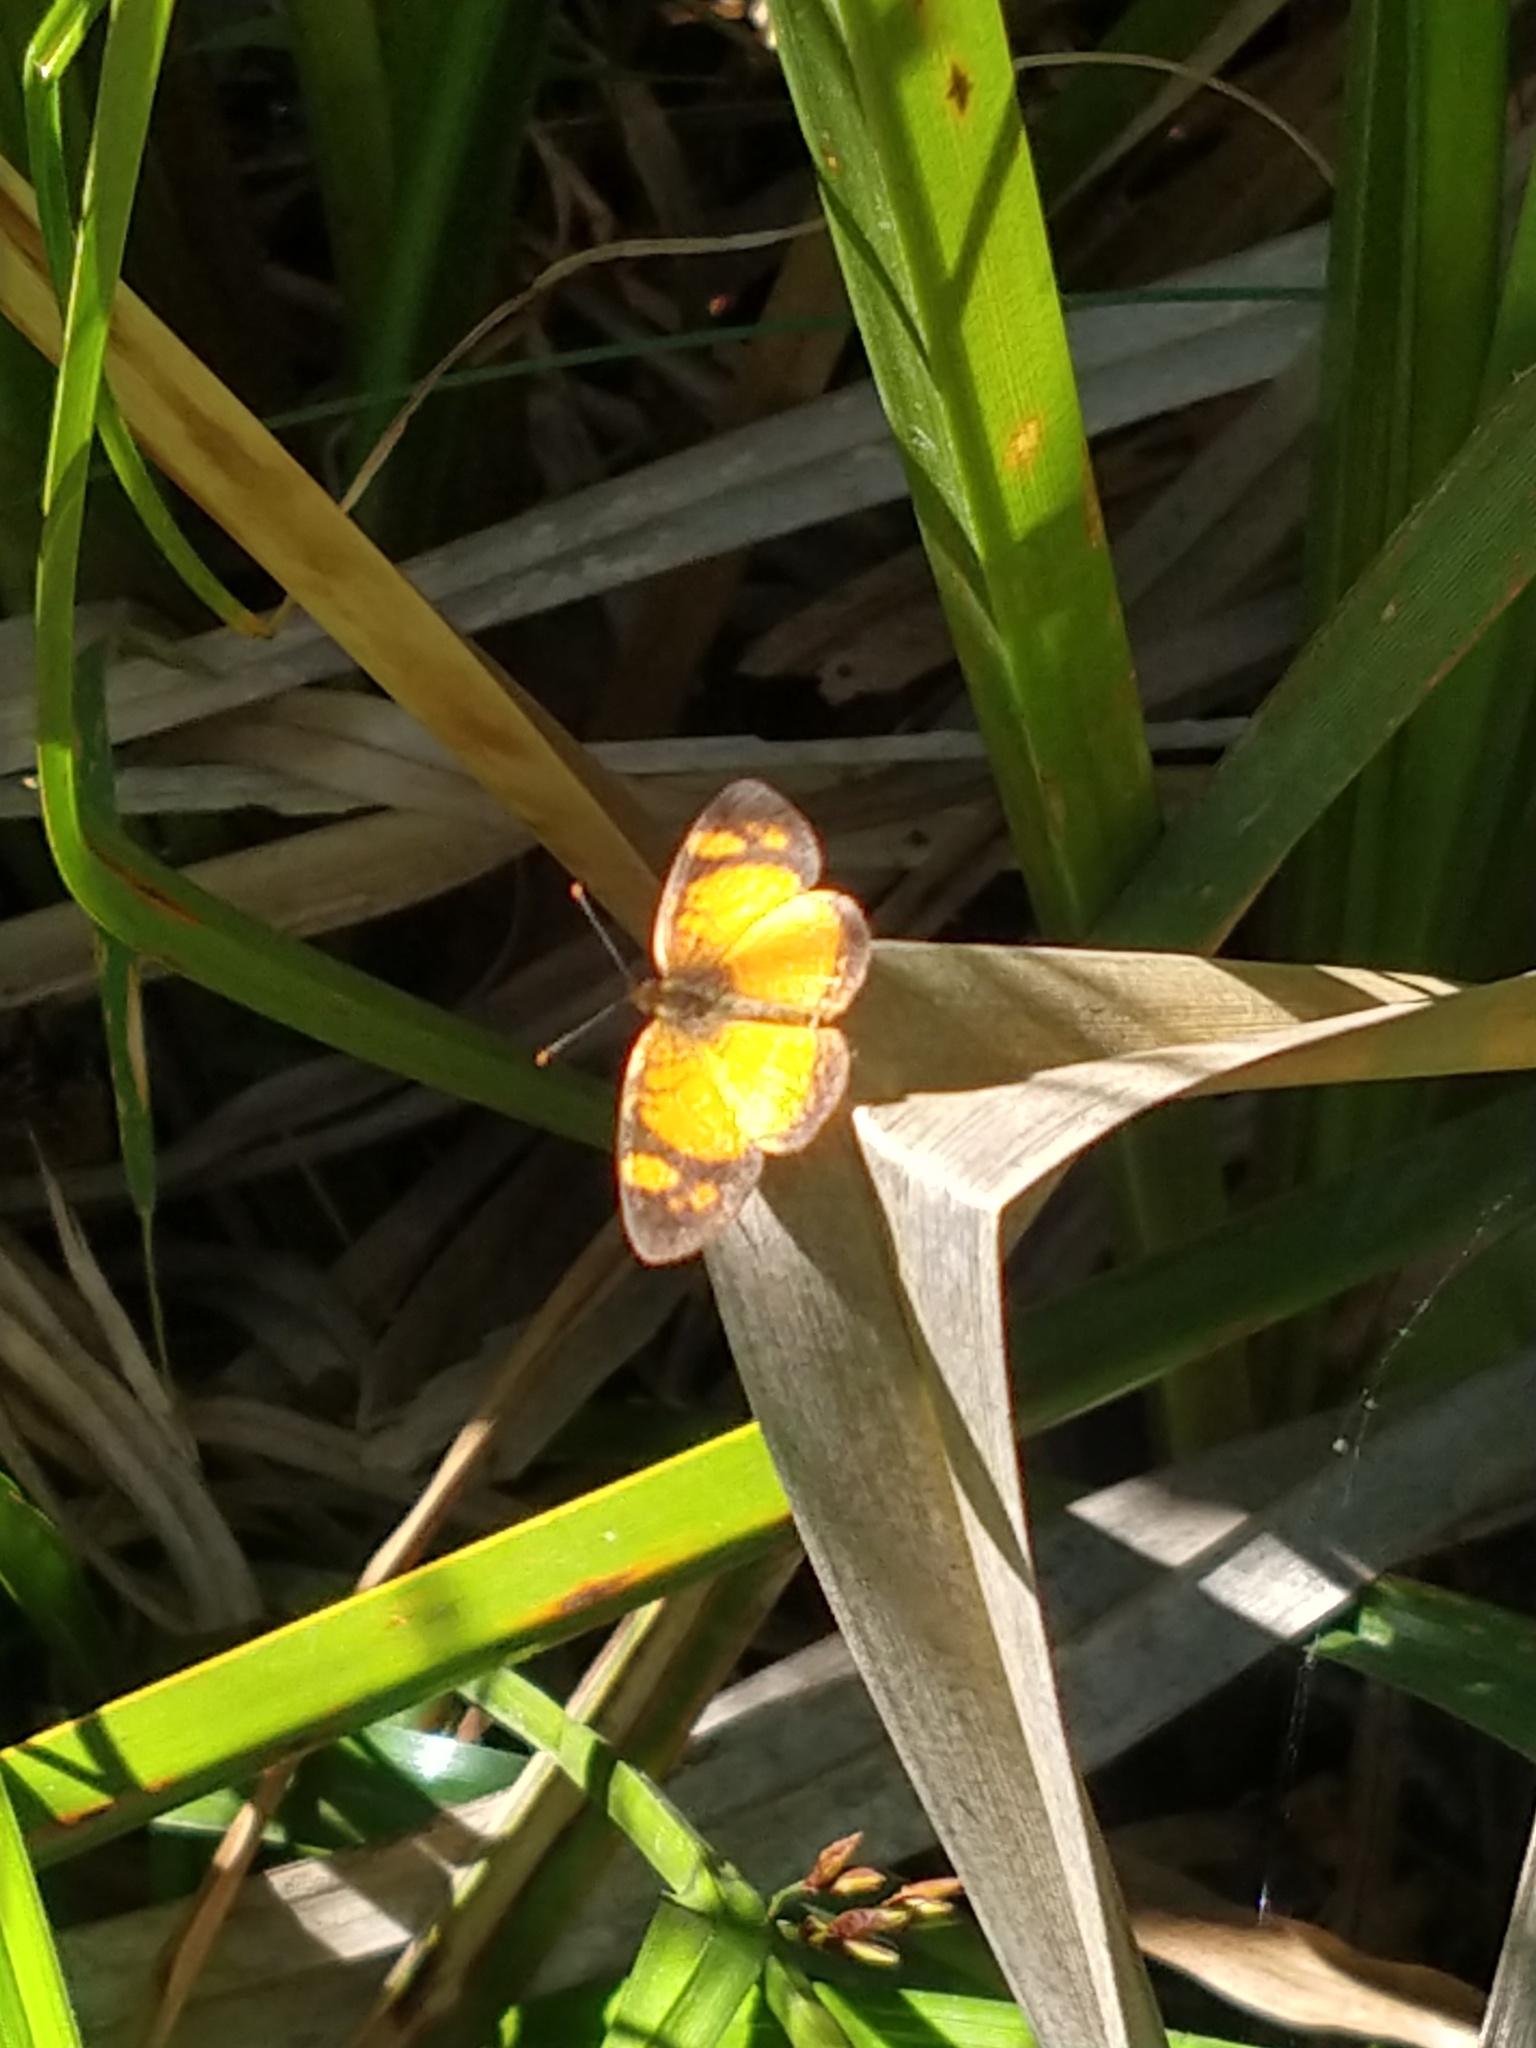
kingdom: Animalia
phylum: Arthropoda
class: Insecta
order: Lepidoptera
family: Nymphalidae
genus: Tegosa
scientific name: Tegosa claudina
